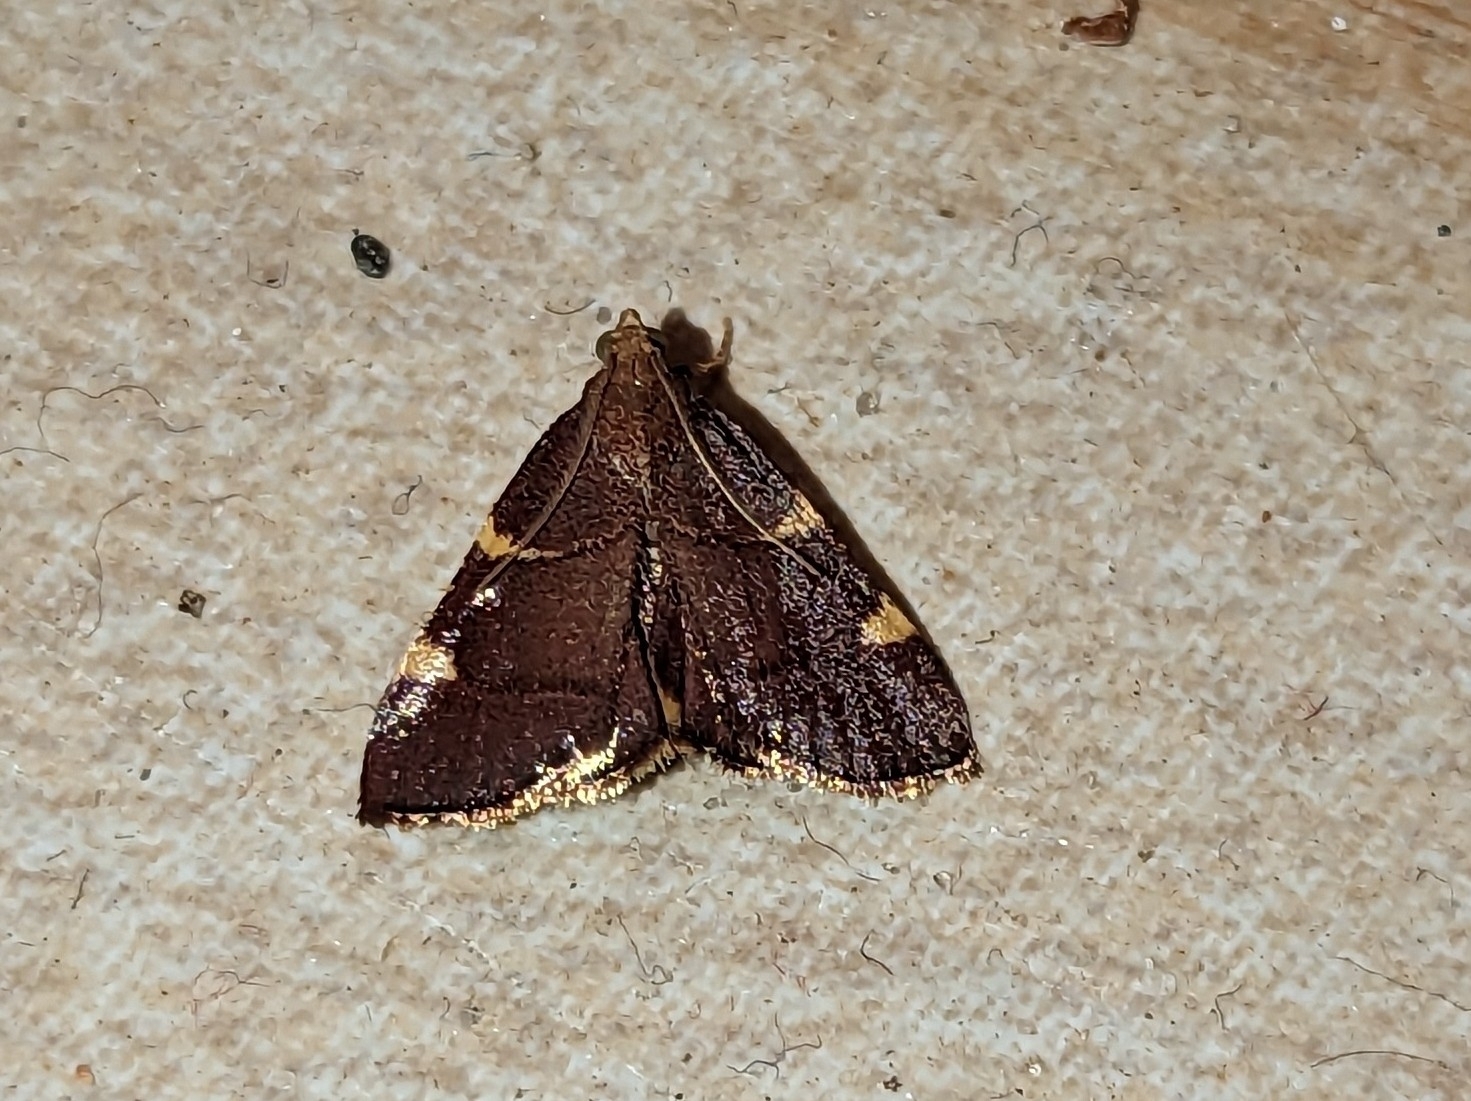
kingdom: Animalia
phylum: Arthropoda
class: Insecta
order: Lepidoptera
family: Pyralidae
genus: Hypsopygia
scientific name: Hypsopygia olinalis
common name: Yellow-fringed dolichomia moth
